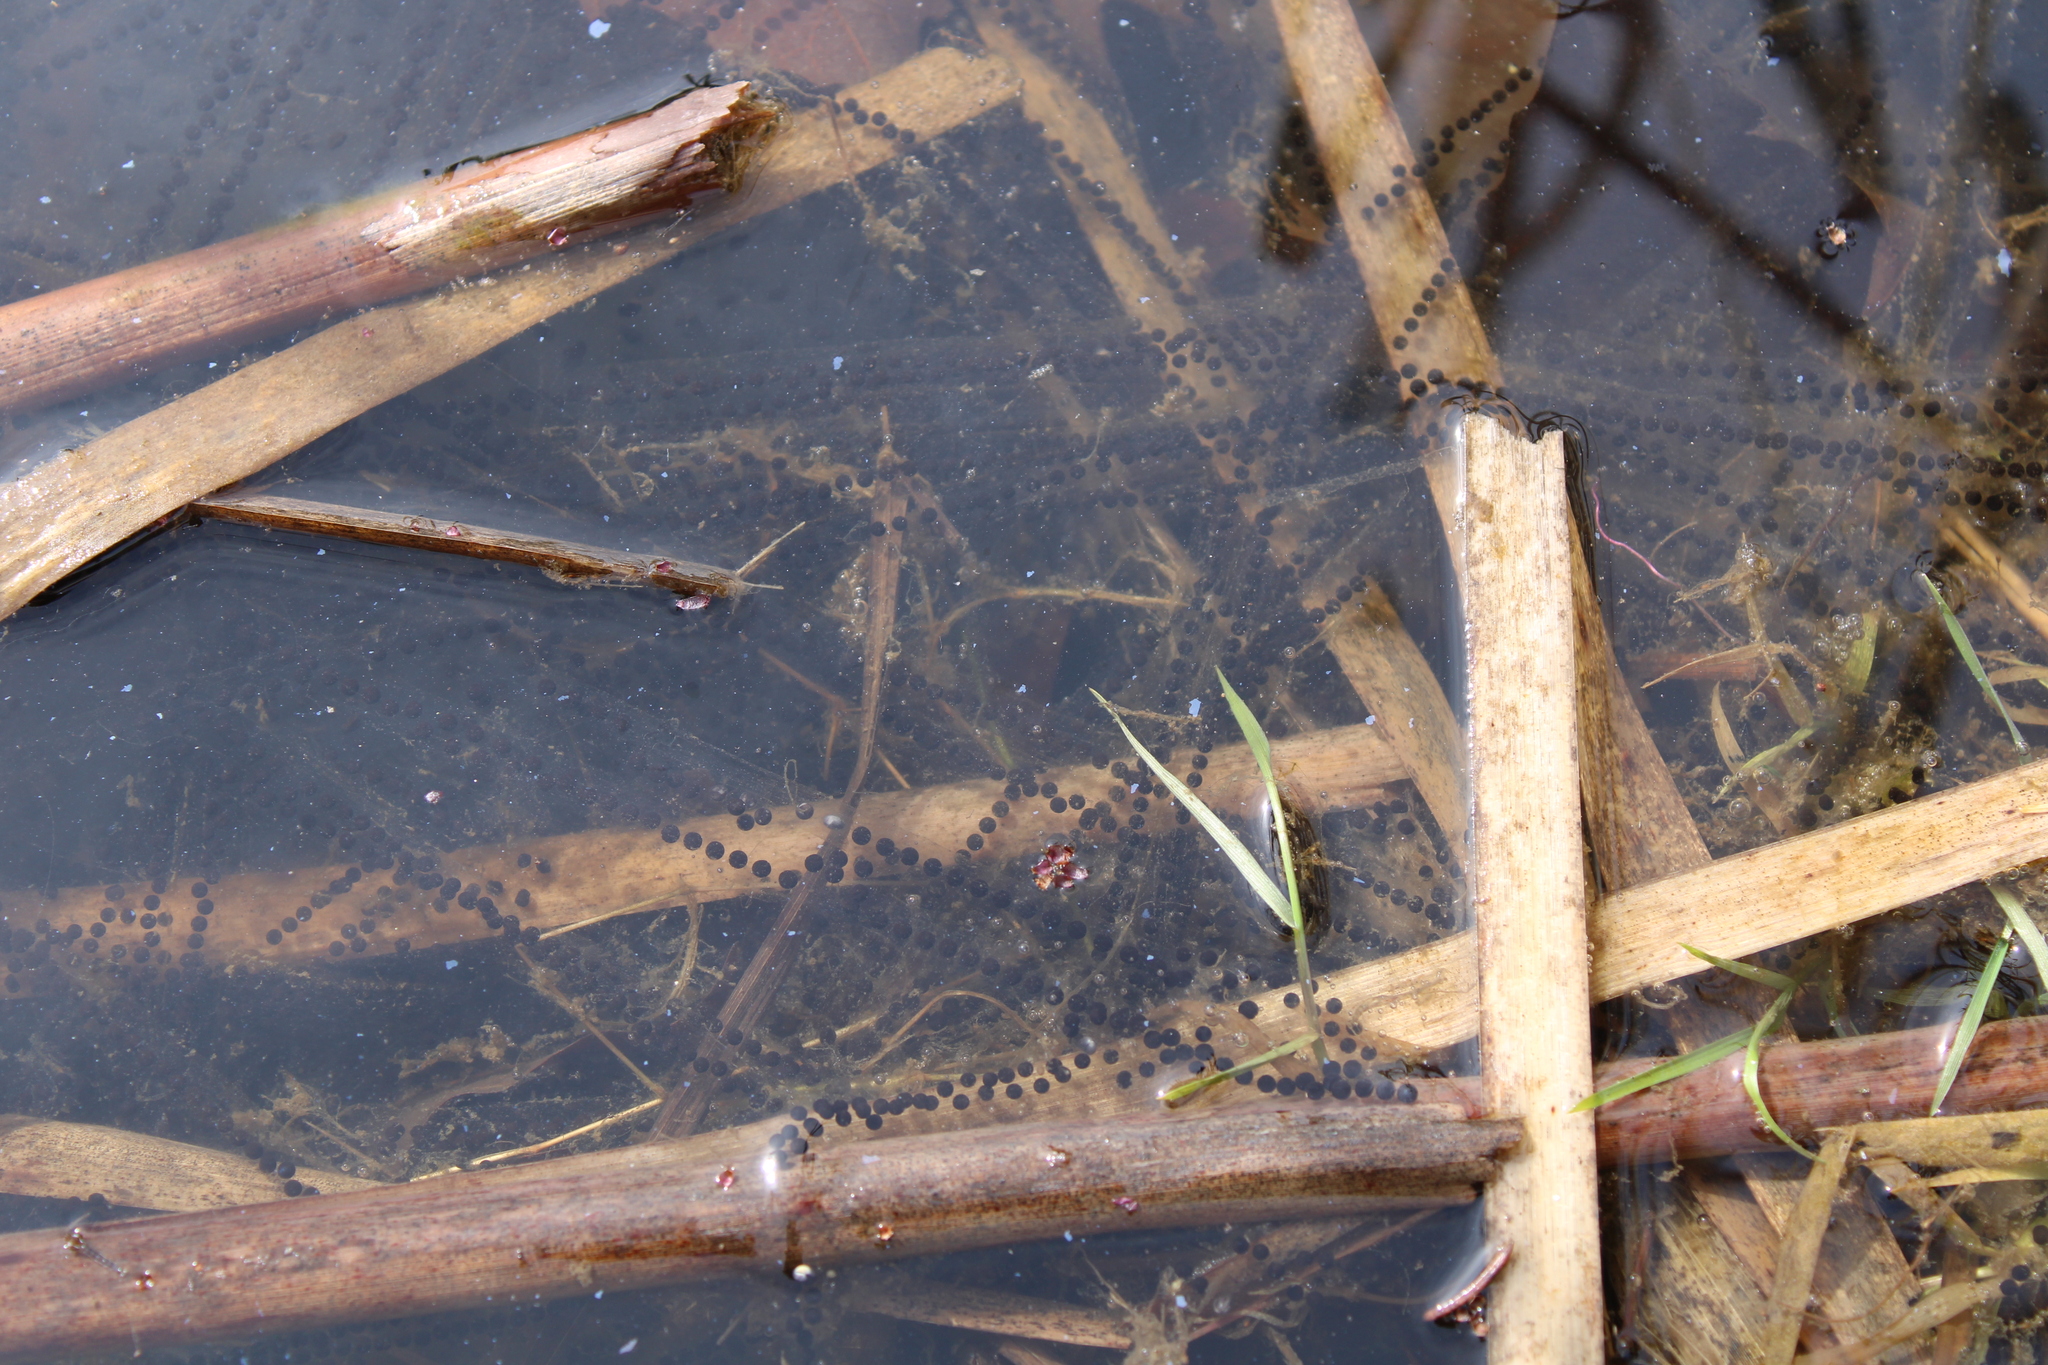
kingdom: Animalia
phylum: Chordata
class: Amphibia
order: Anura
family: Bufonidae
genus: Bufo
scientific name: Bufo bufo
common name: Common toad
